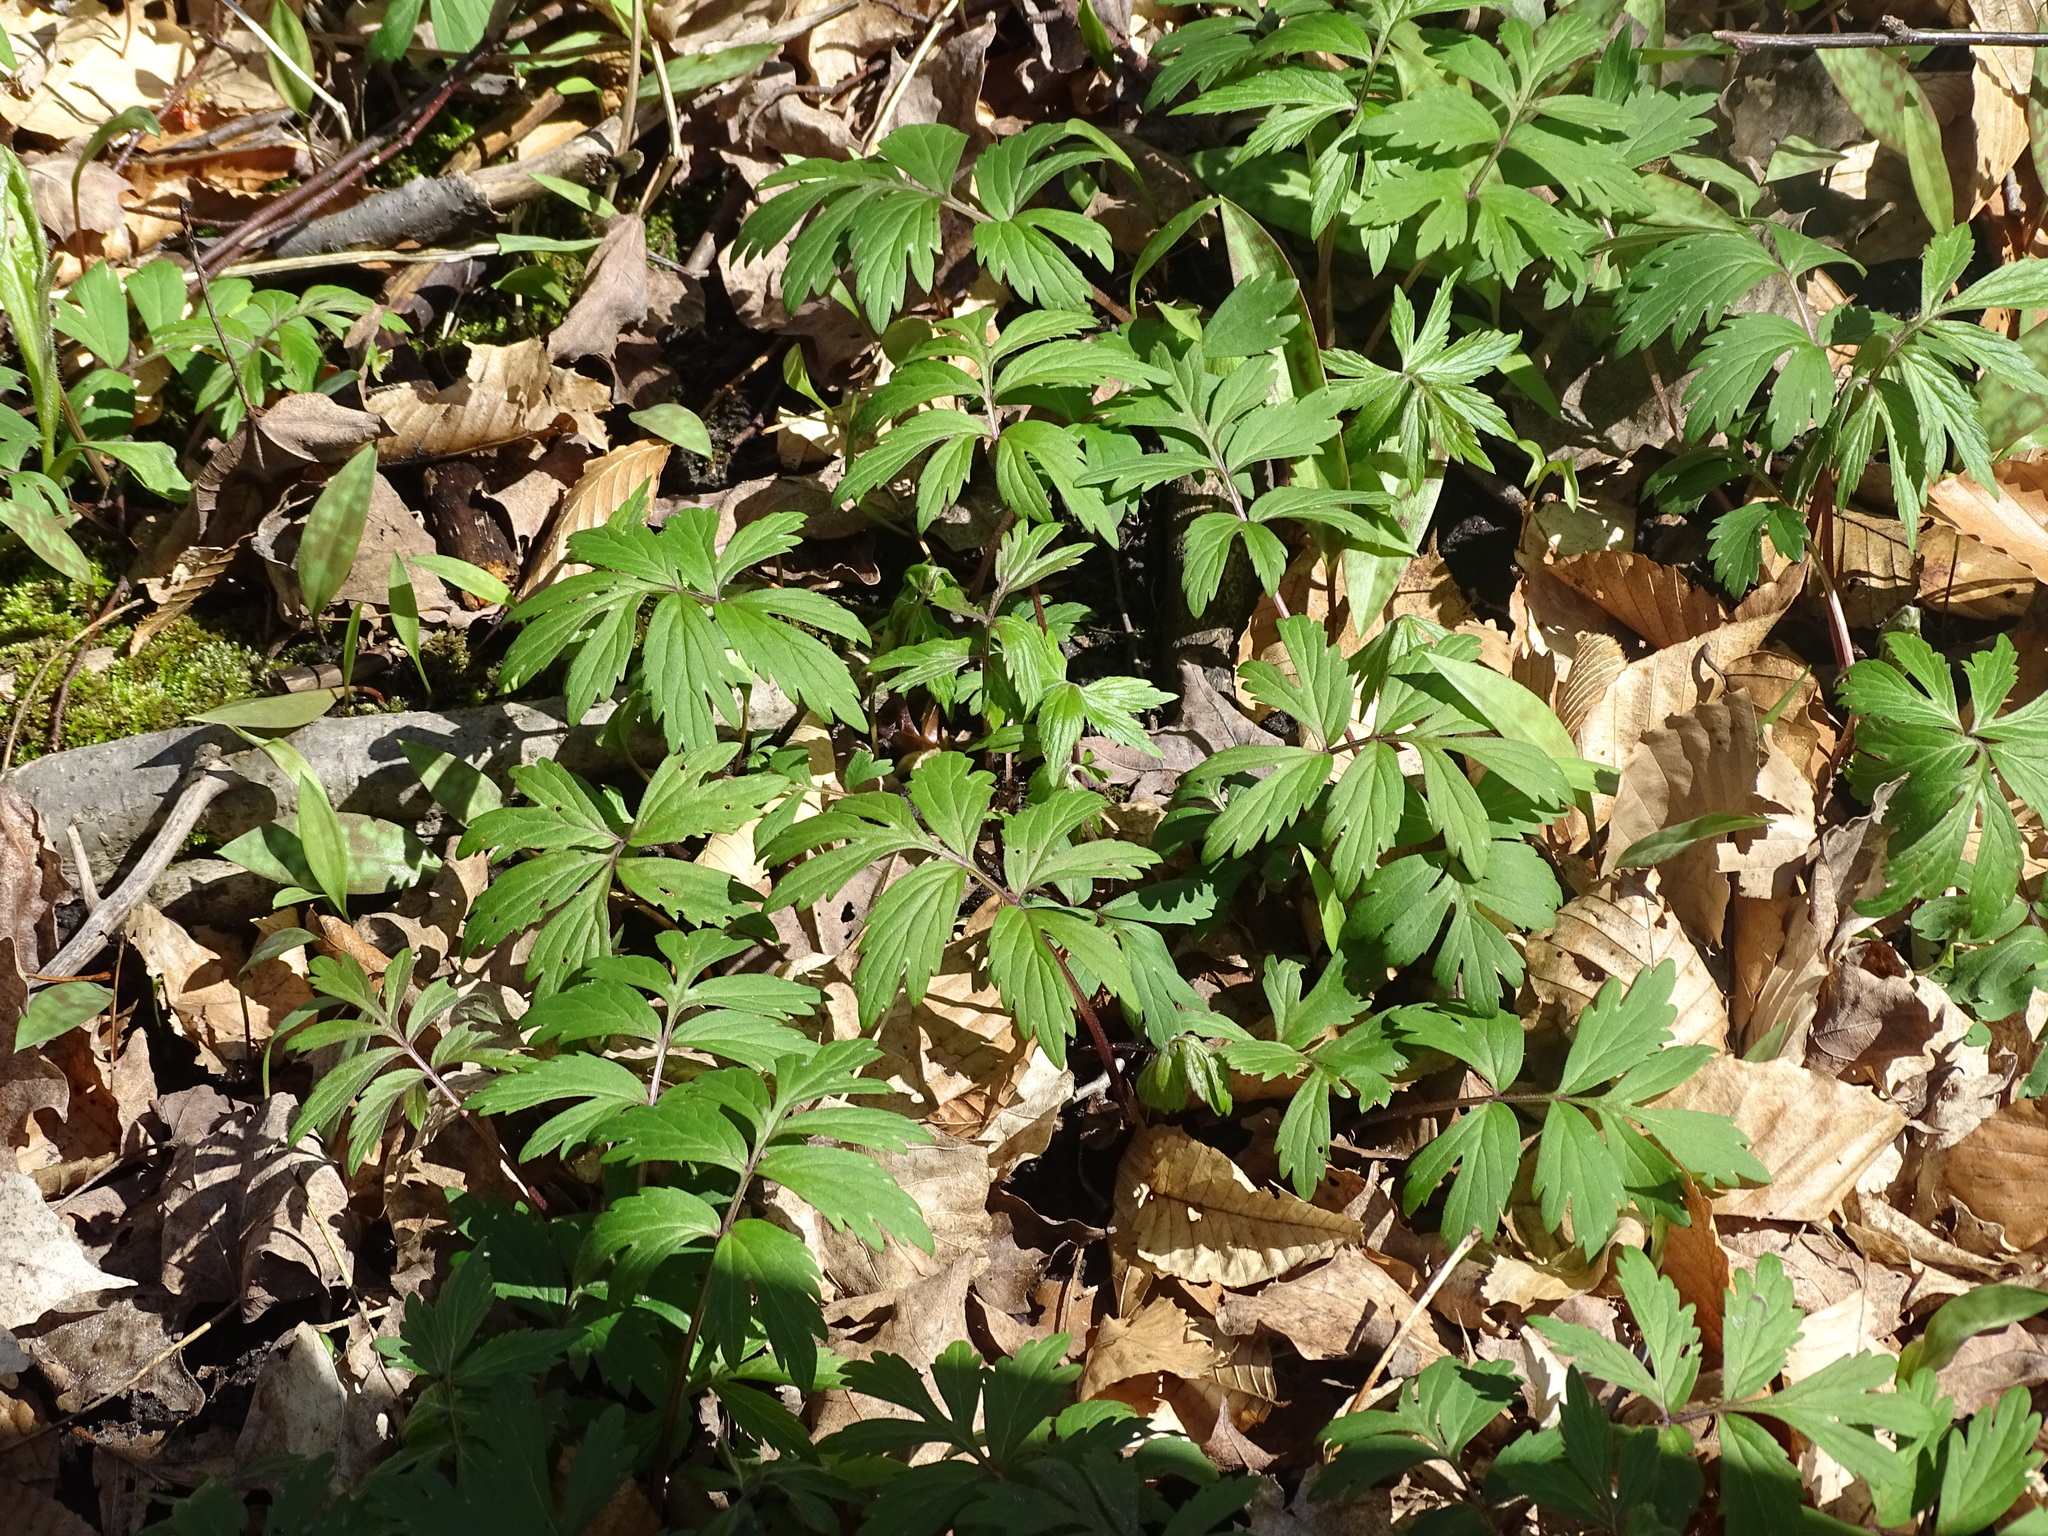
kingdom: Plantae
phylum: Tracheophyta
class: Magnoliopsida
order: Boraginales
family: Hydrophyllaceae
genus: Hydrophyllum
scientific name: Hydrophyllum virginianum
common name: Virginia waterleaf
